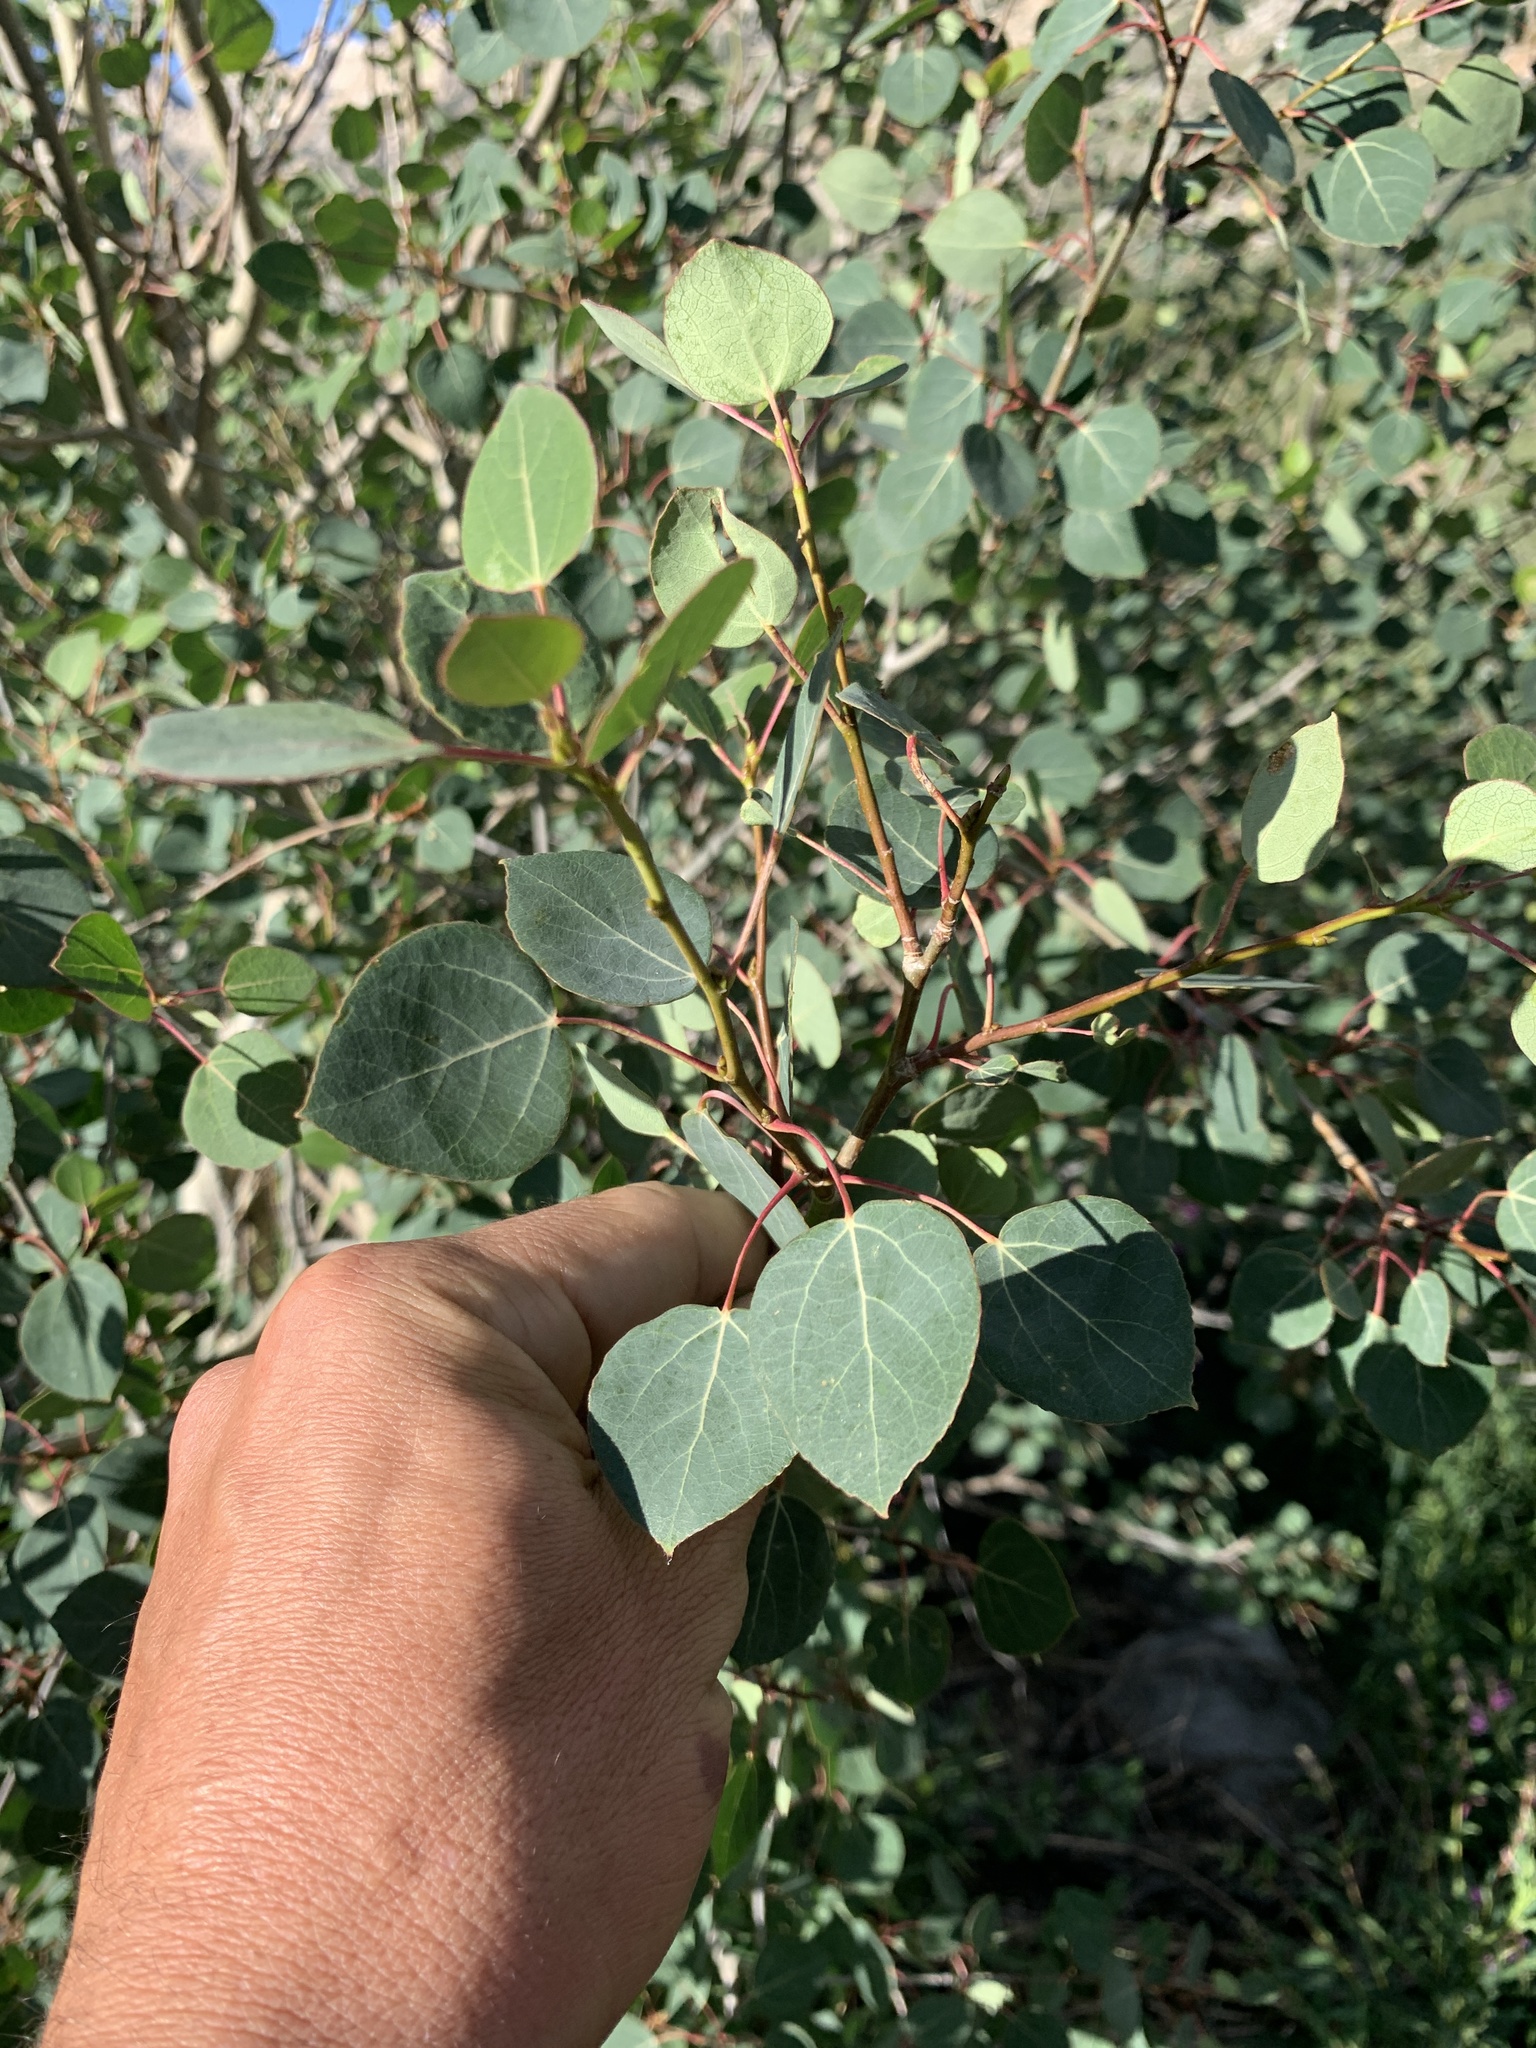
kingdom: Plantae
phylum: Tracheophyta
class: Magnoliopsida
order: Malpighiales
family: Salicaceae
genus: Populus
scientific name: Populus tremuloides
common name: Quaking aspen
